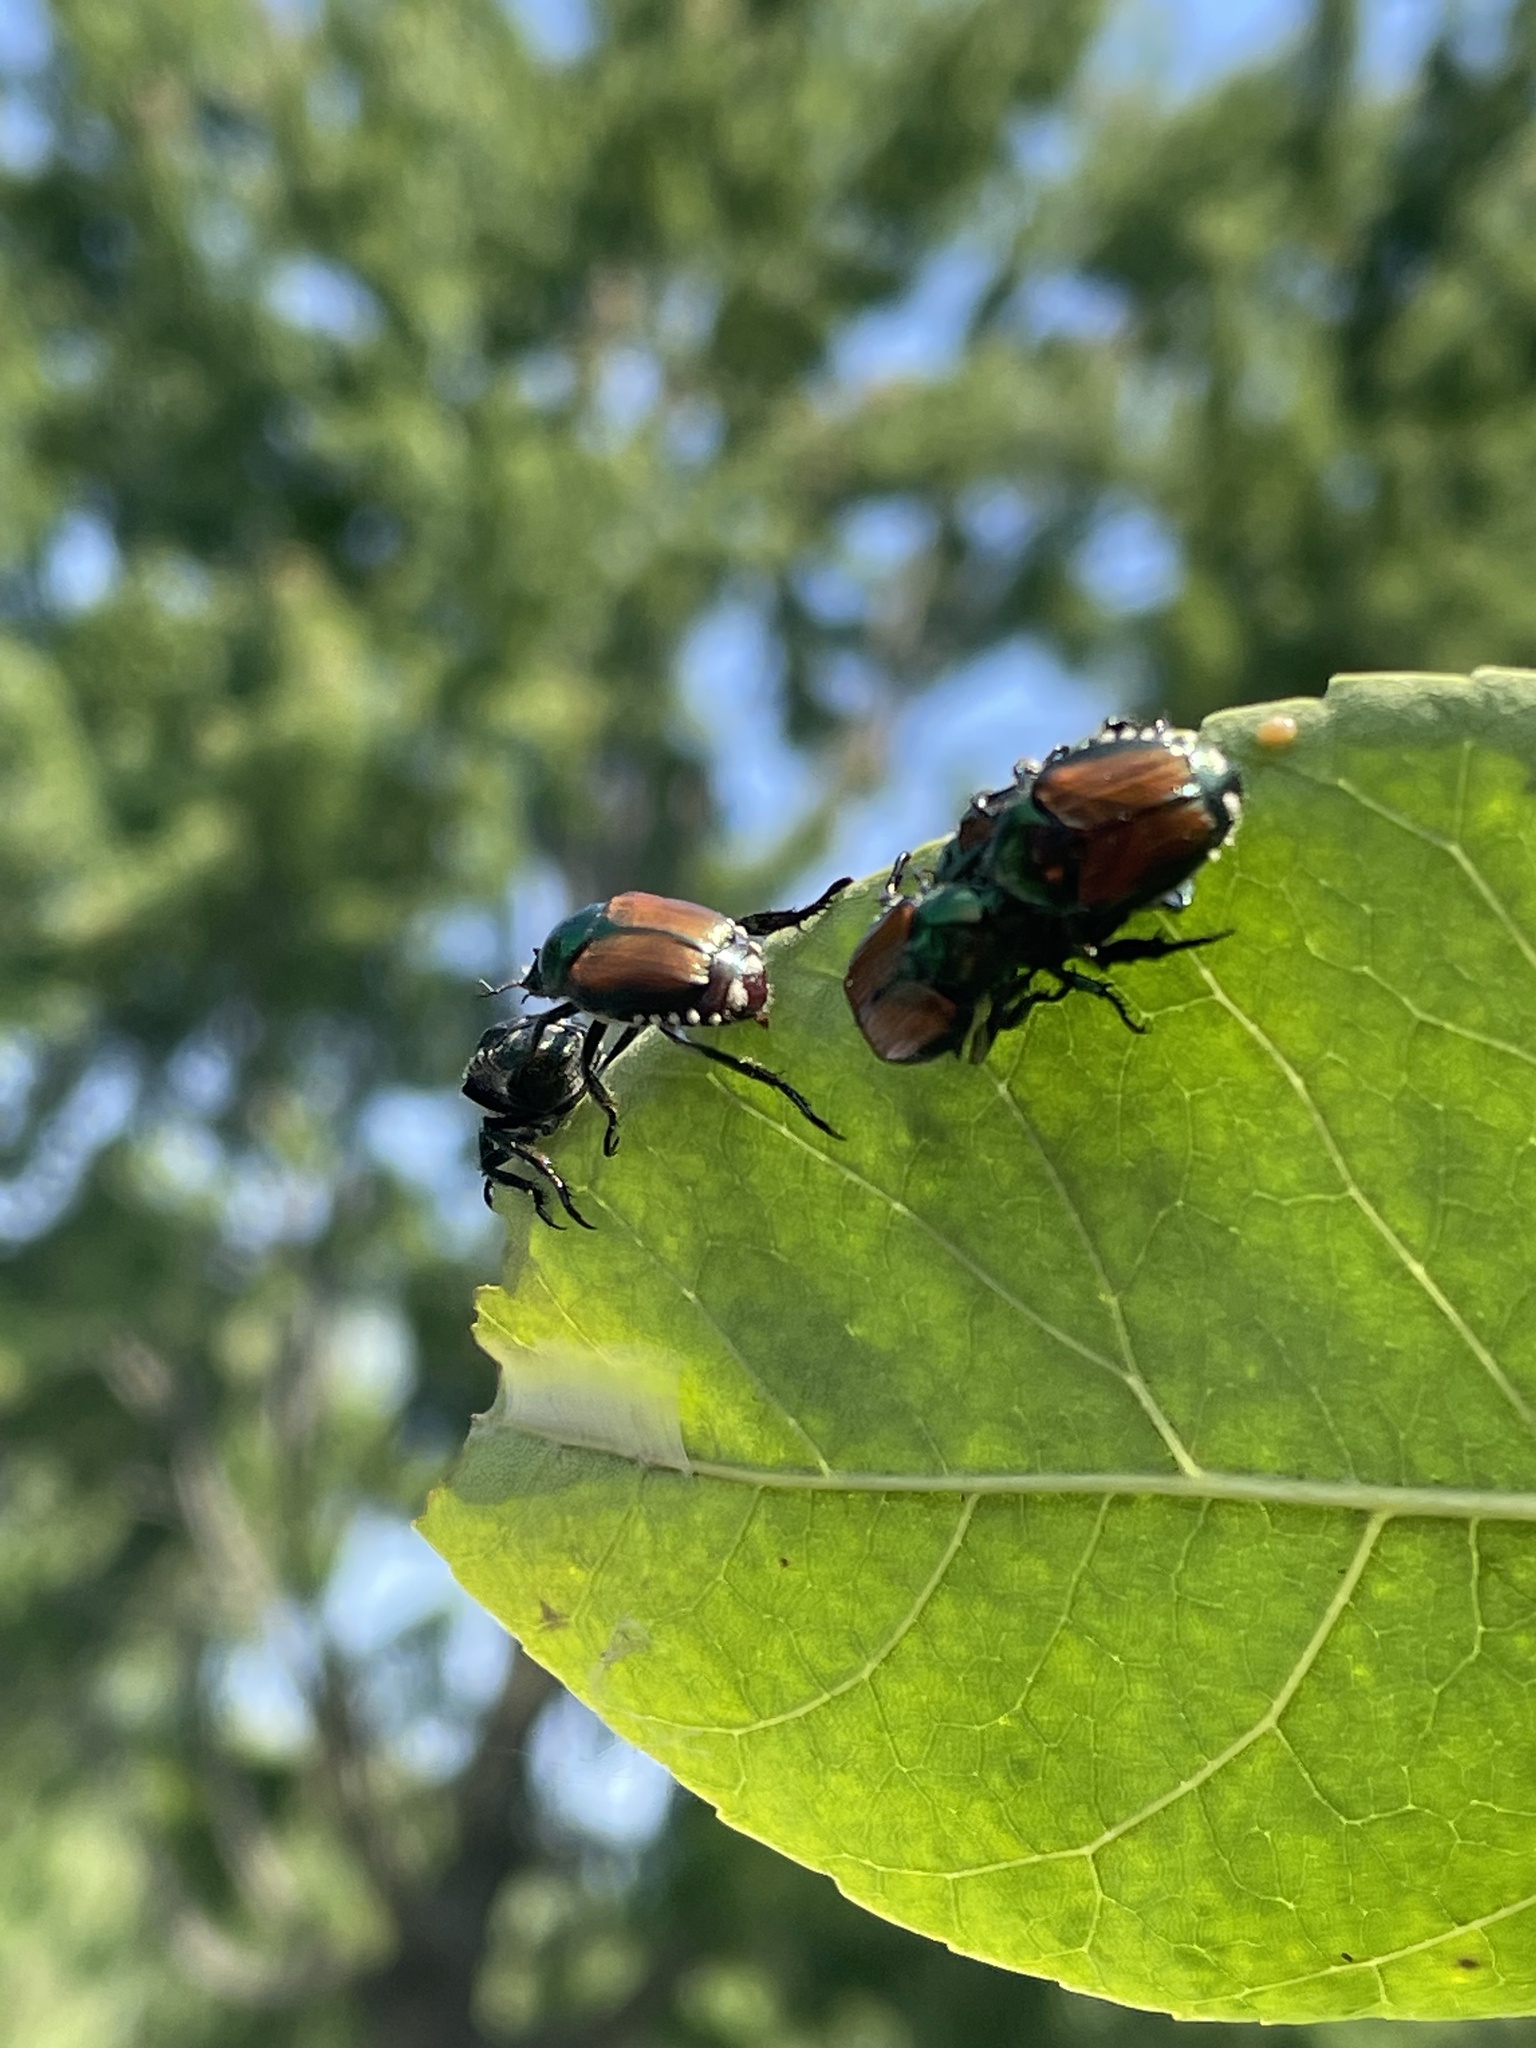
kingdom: Animalia
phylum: Arthropoda
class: Insecta
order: Coleoptera
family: Scarabaeidae
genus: Popillia
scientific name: Popillia japonica
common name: Japanese beetle
